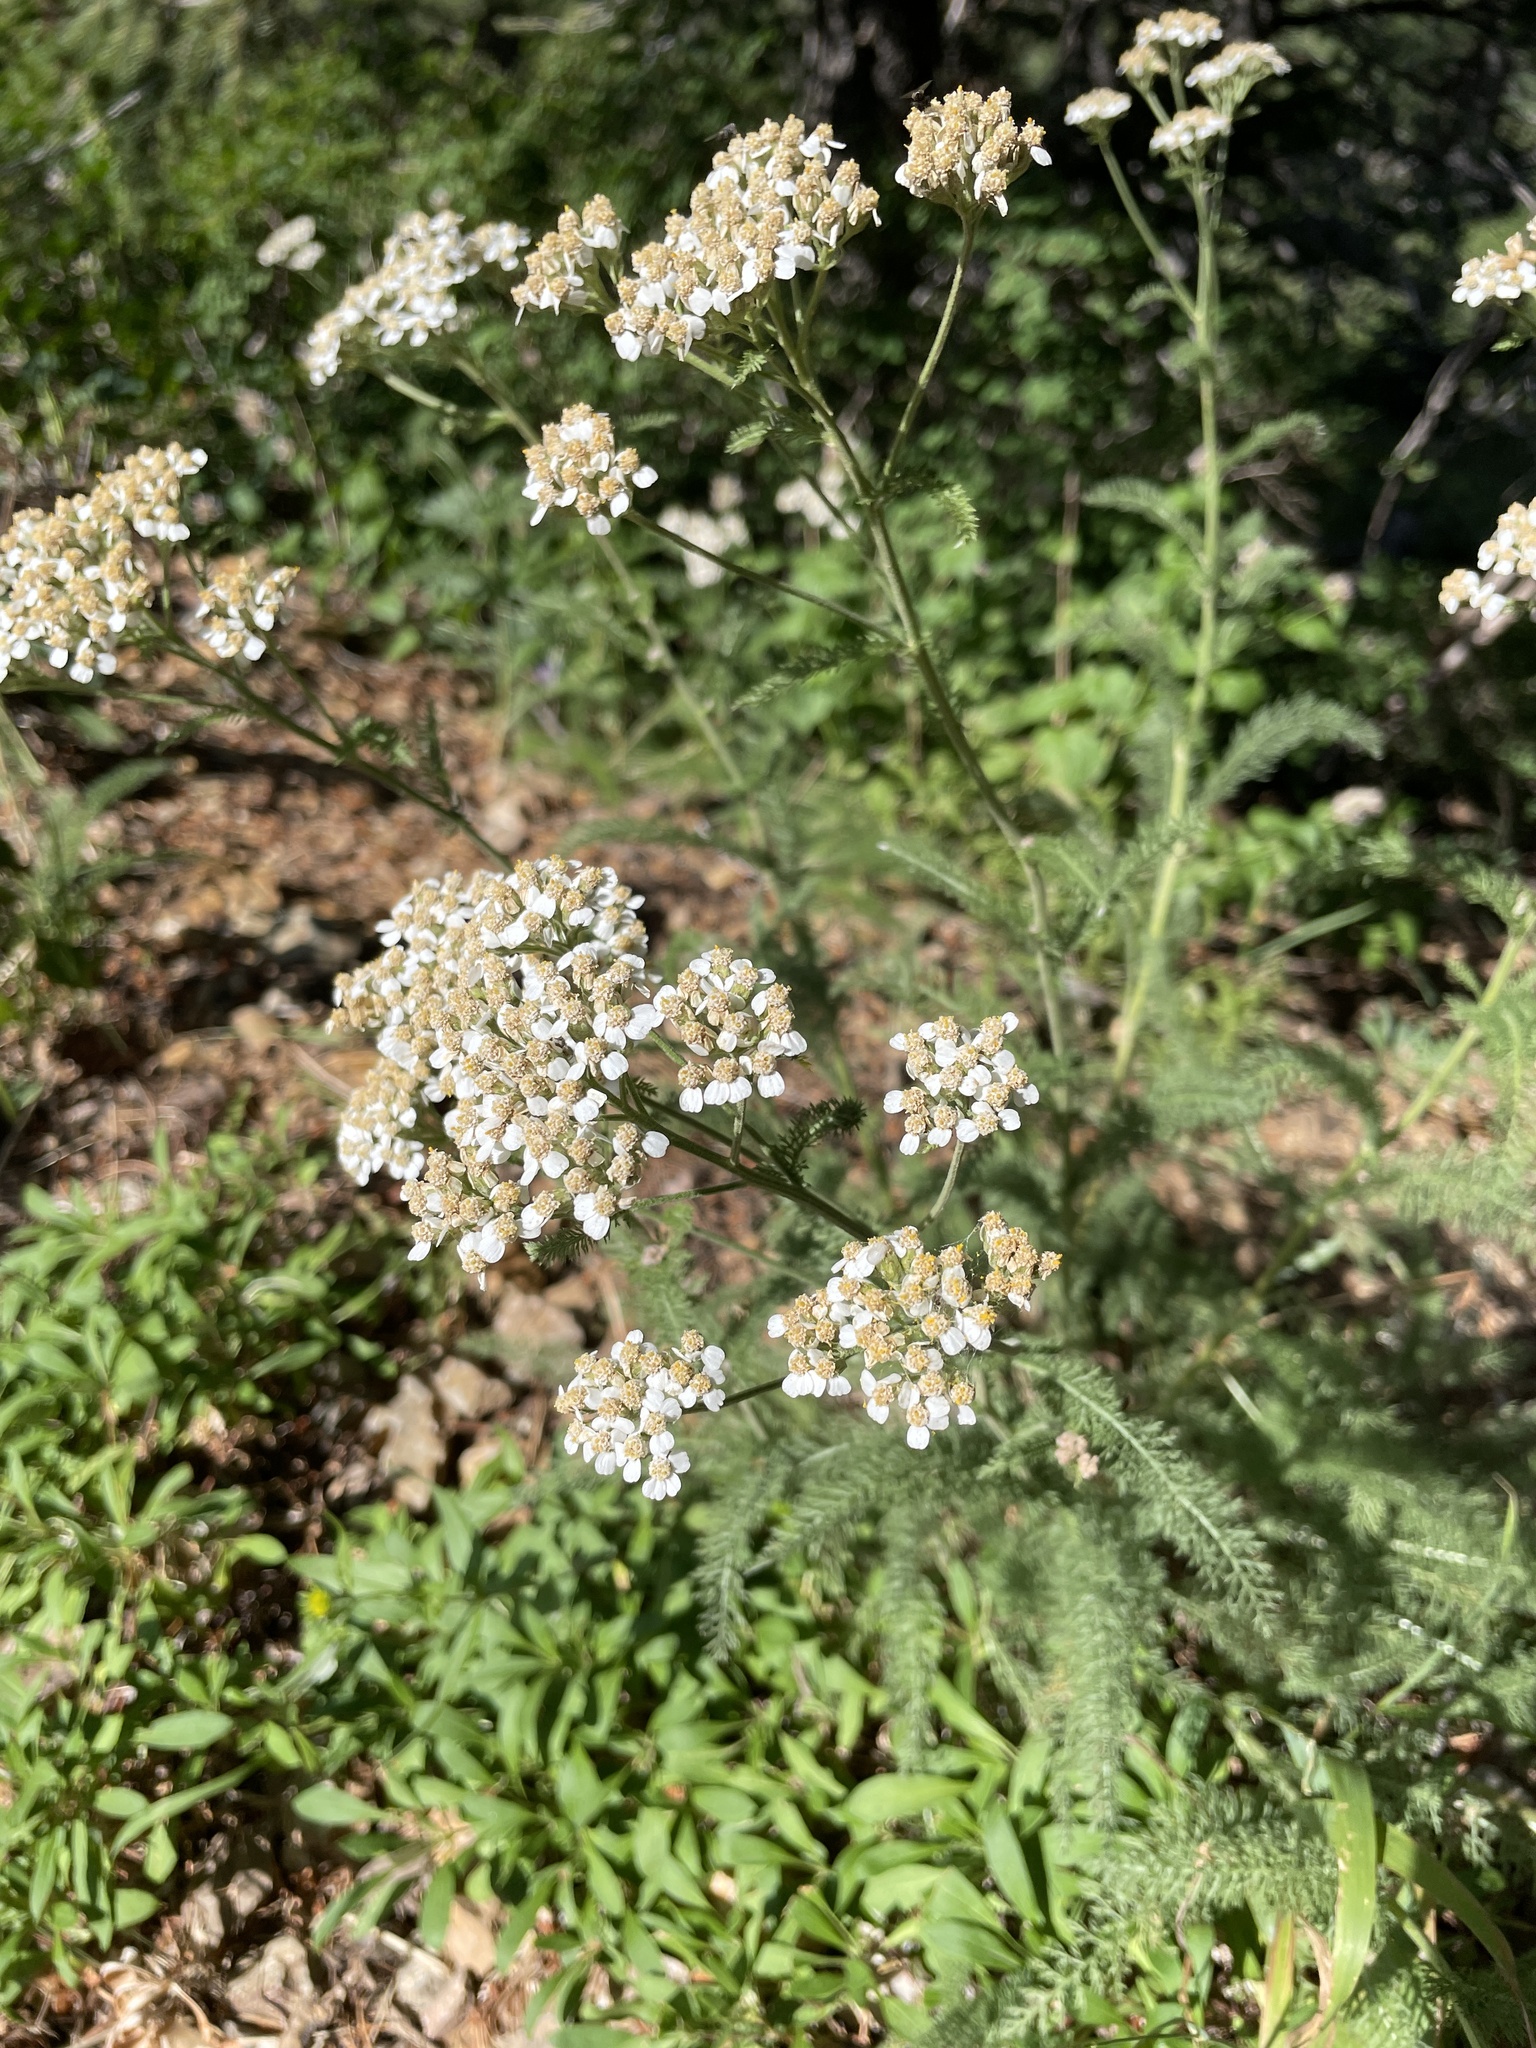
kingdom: Plantae
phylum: Tracheophyta
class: Magnoliopsida
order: Asterales
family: Asteraceae
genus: Achillea
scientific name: Achillea millefolium
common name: Yarrow
